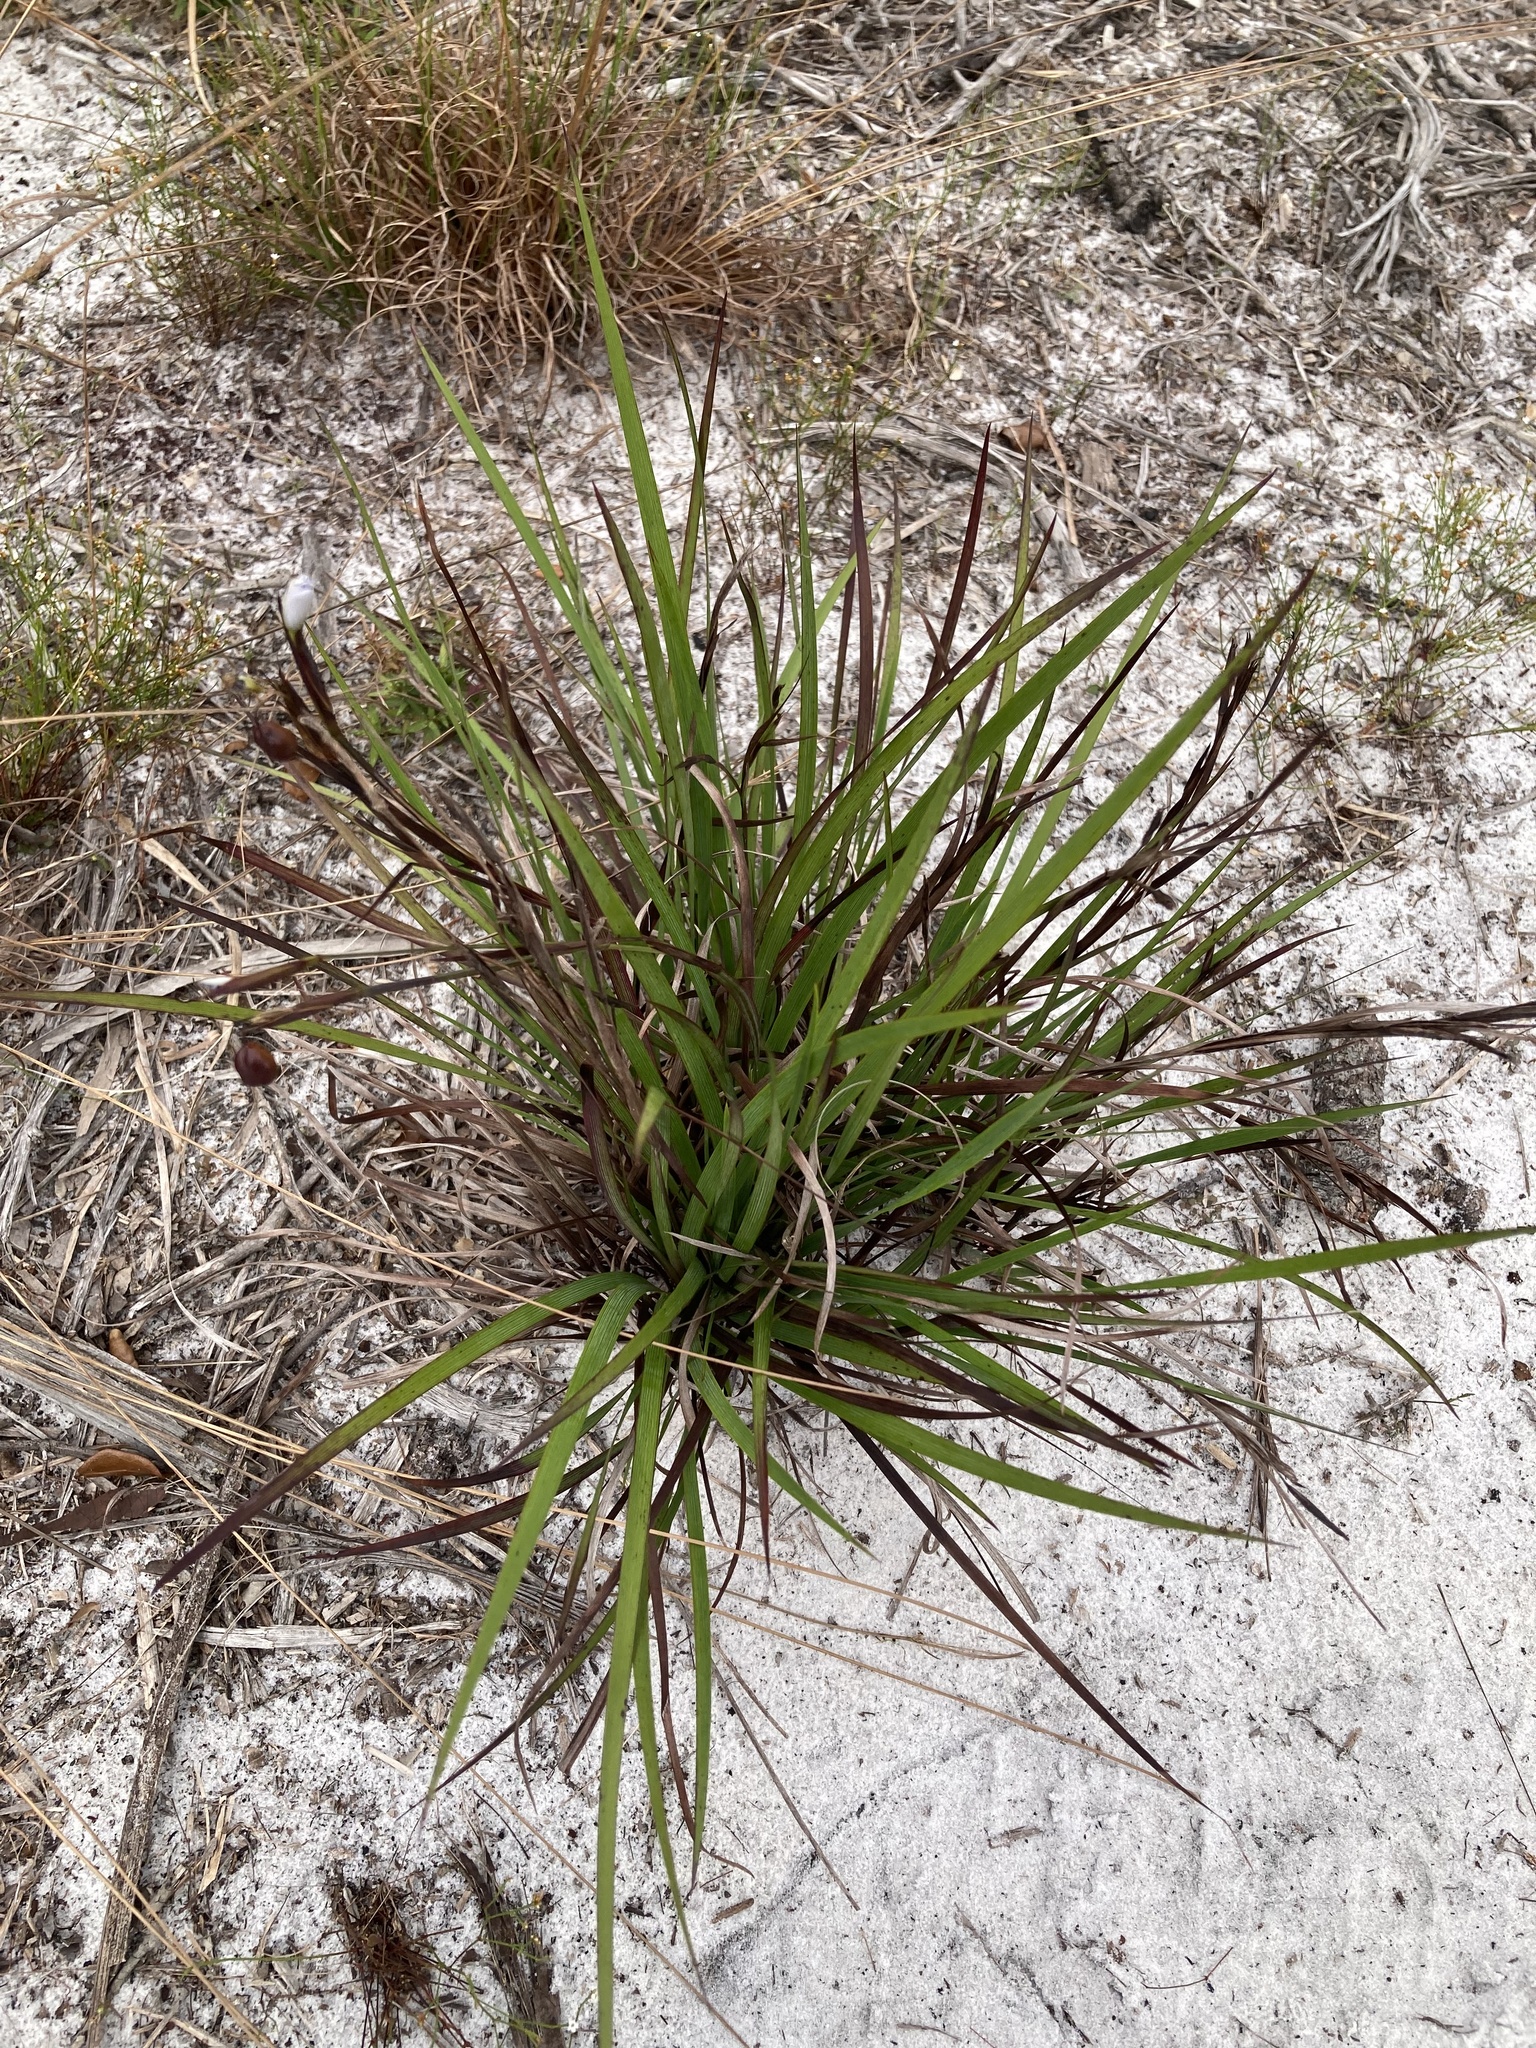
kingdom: Plantae
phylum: Tracheophyta
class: Liliopsida
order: Asparagales
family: Iridaceae
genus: Sisyrinchium
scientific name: Sisyrinchium xerophyllum
